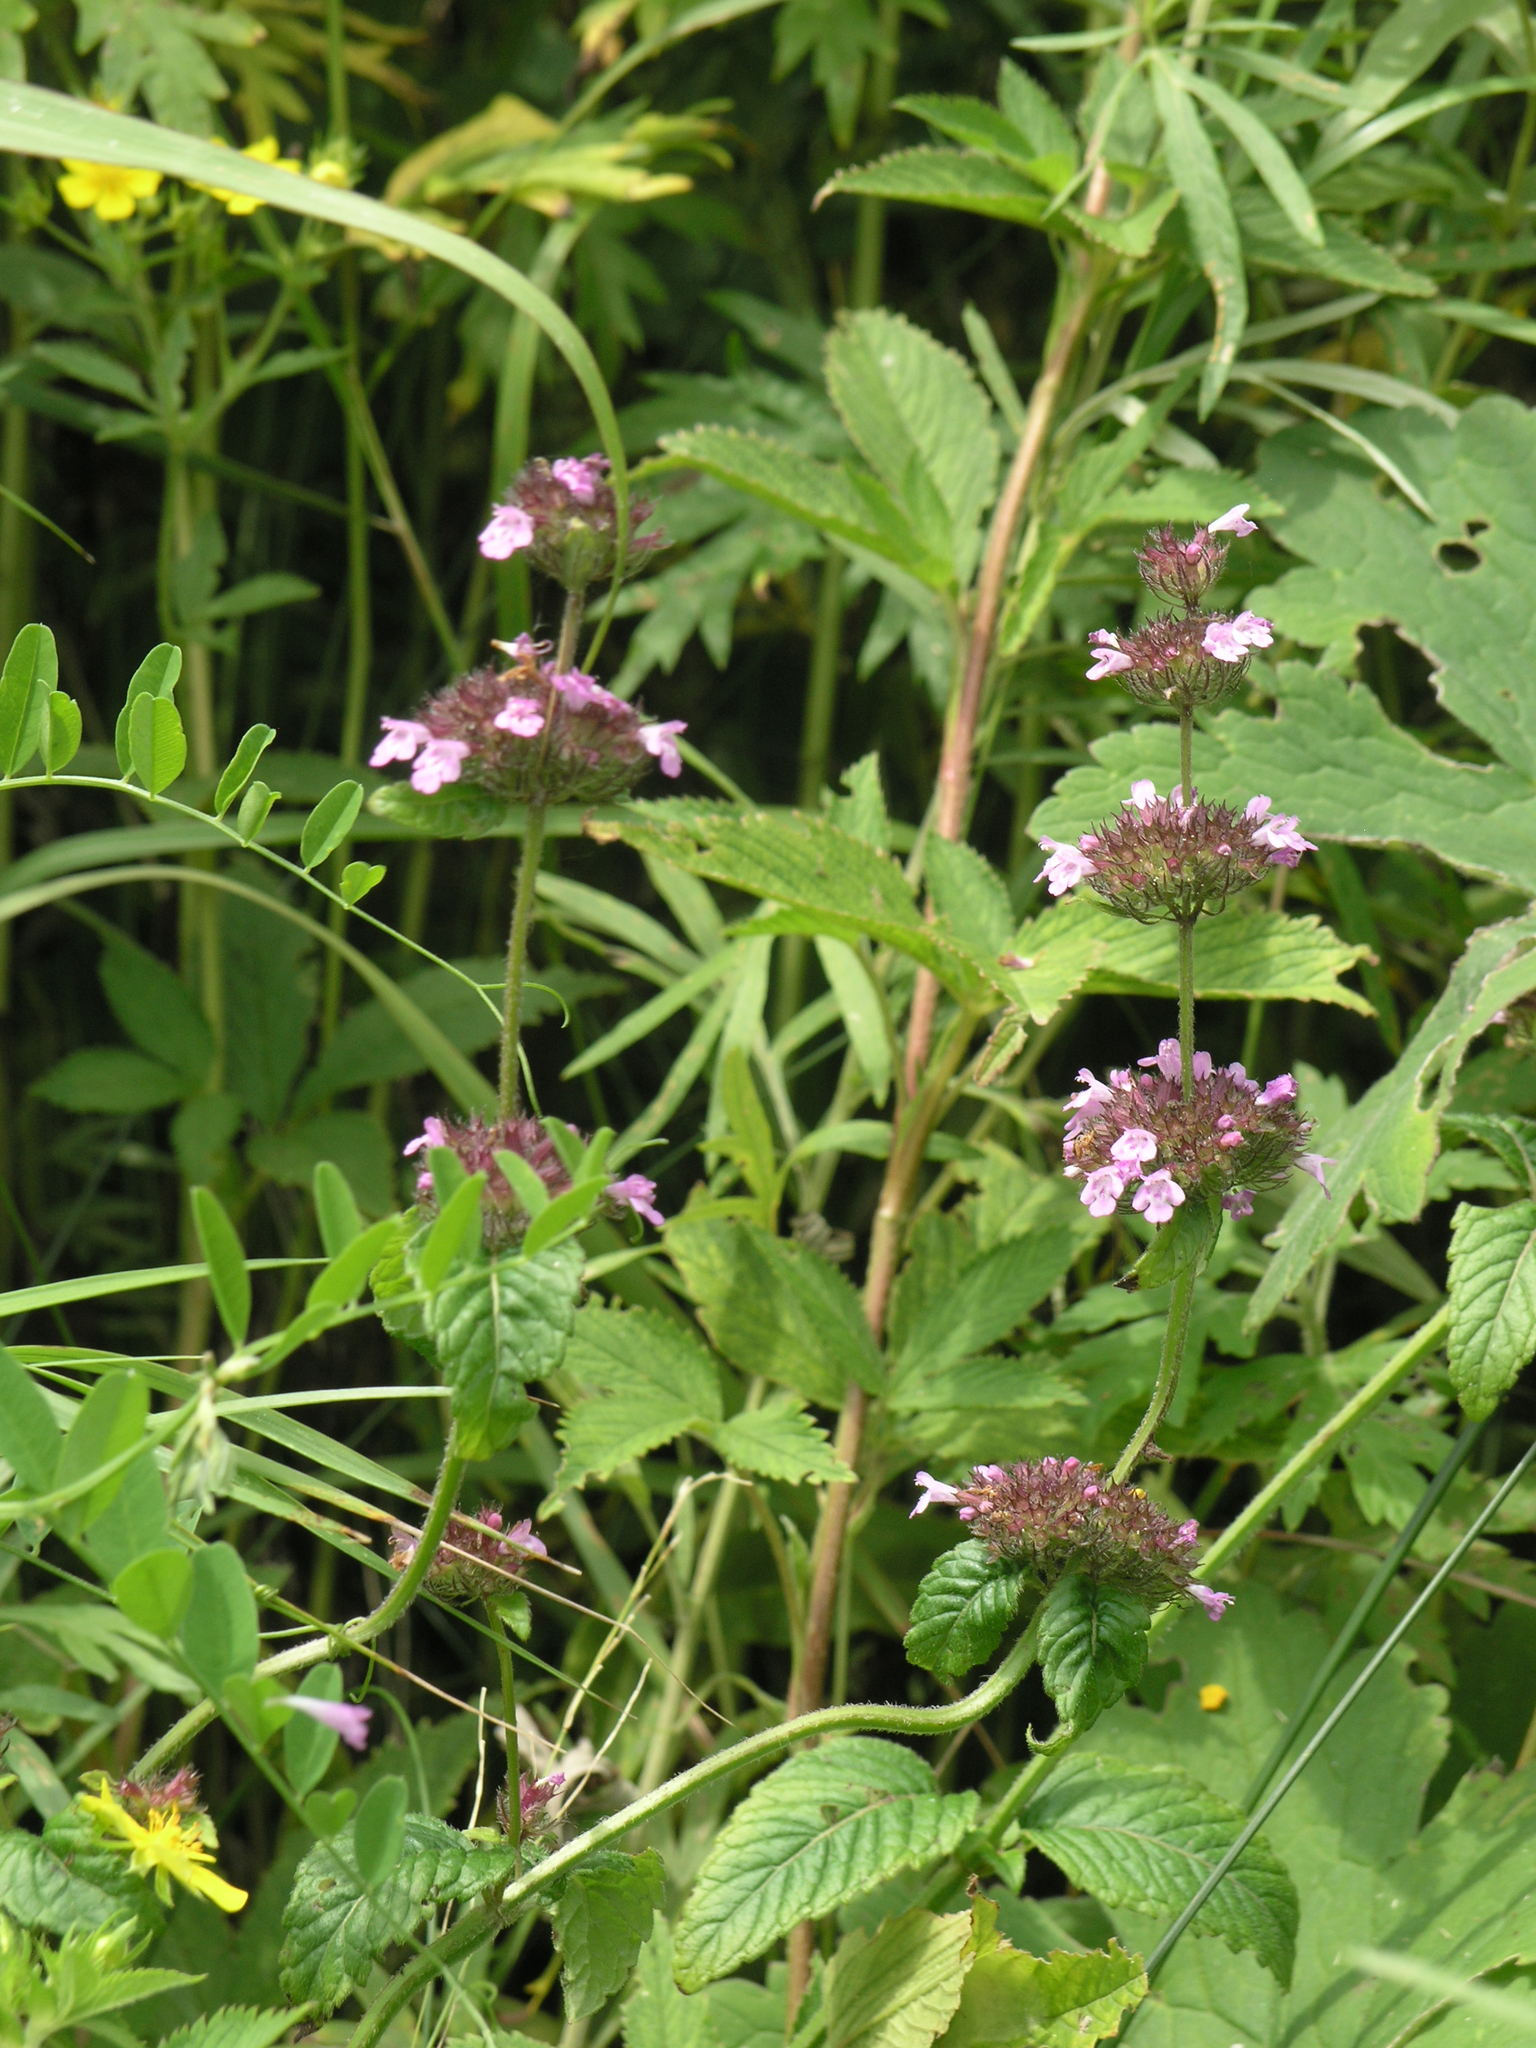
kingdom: Plantae
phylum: Tracheophyta
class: Magnoliopsida
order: Lamiales
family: Lamiaceae
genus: Clinopodium
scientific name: Clinopodium chinense
